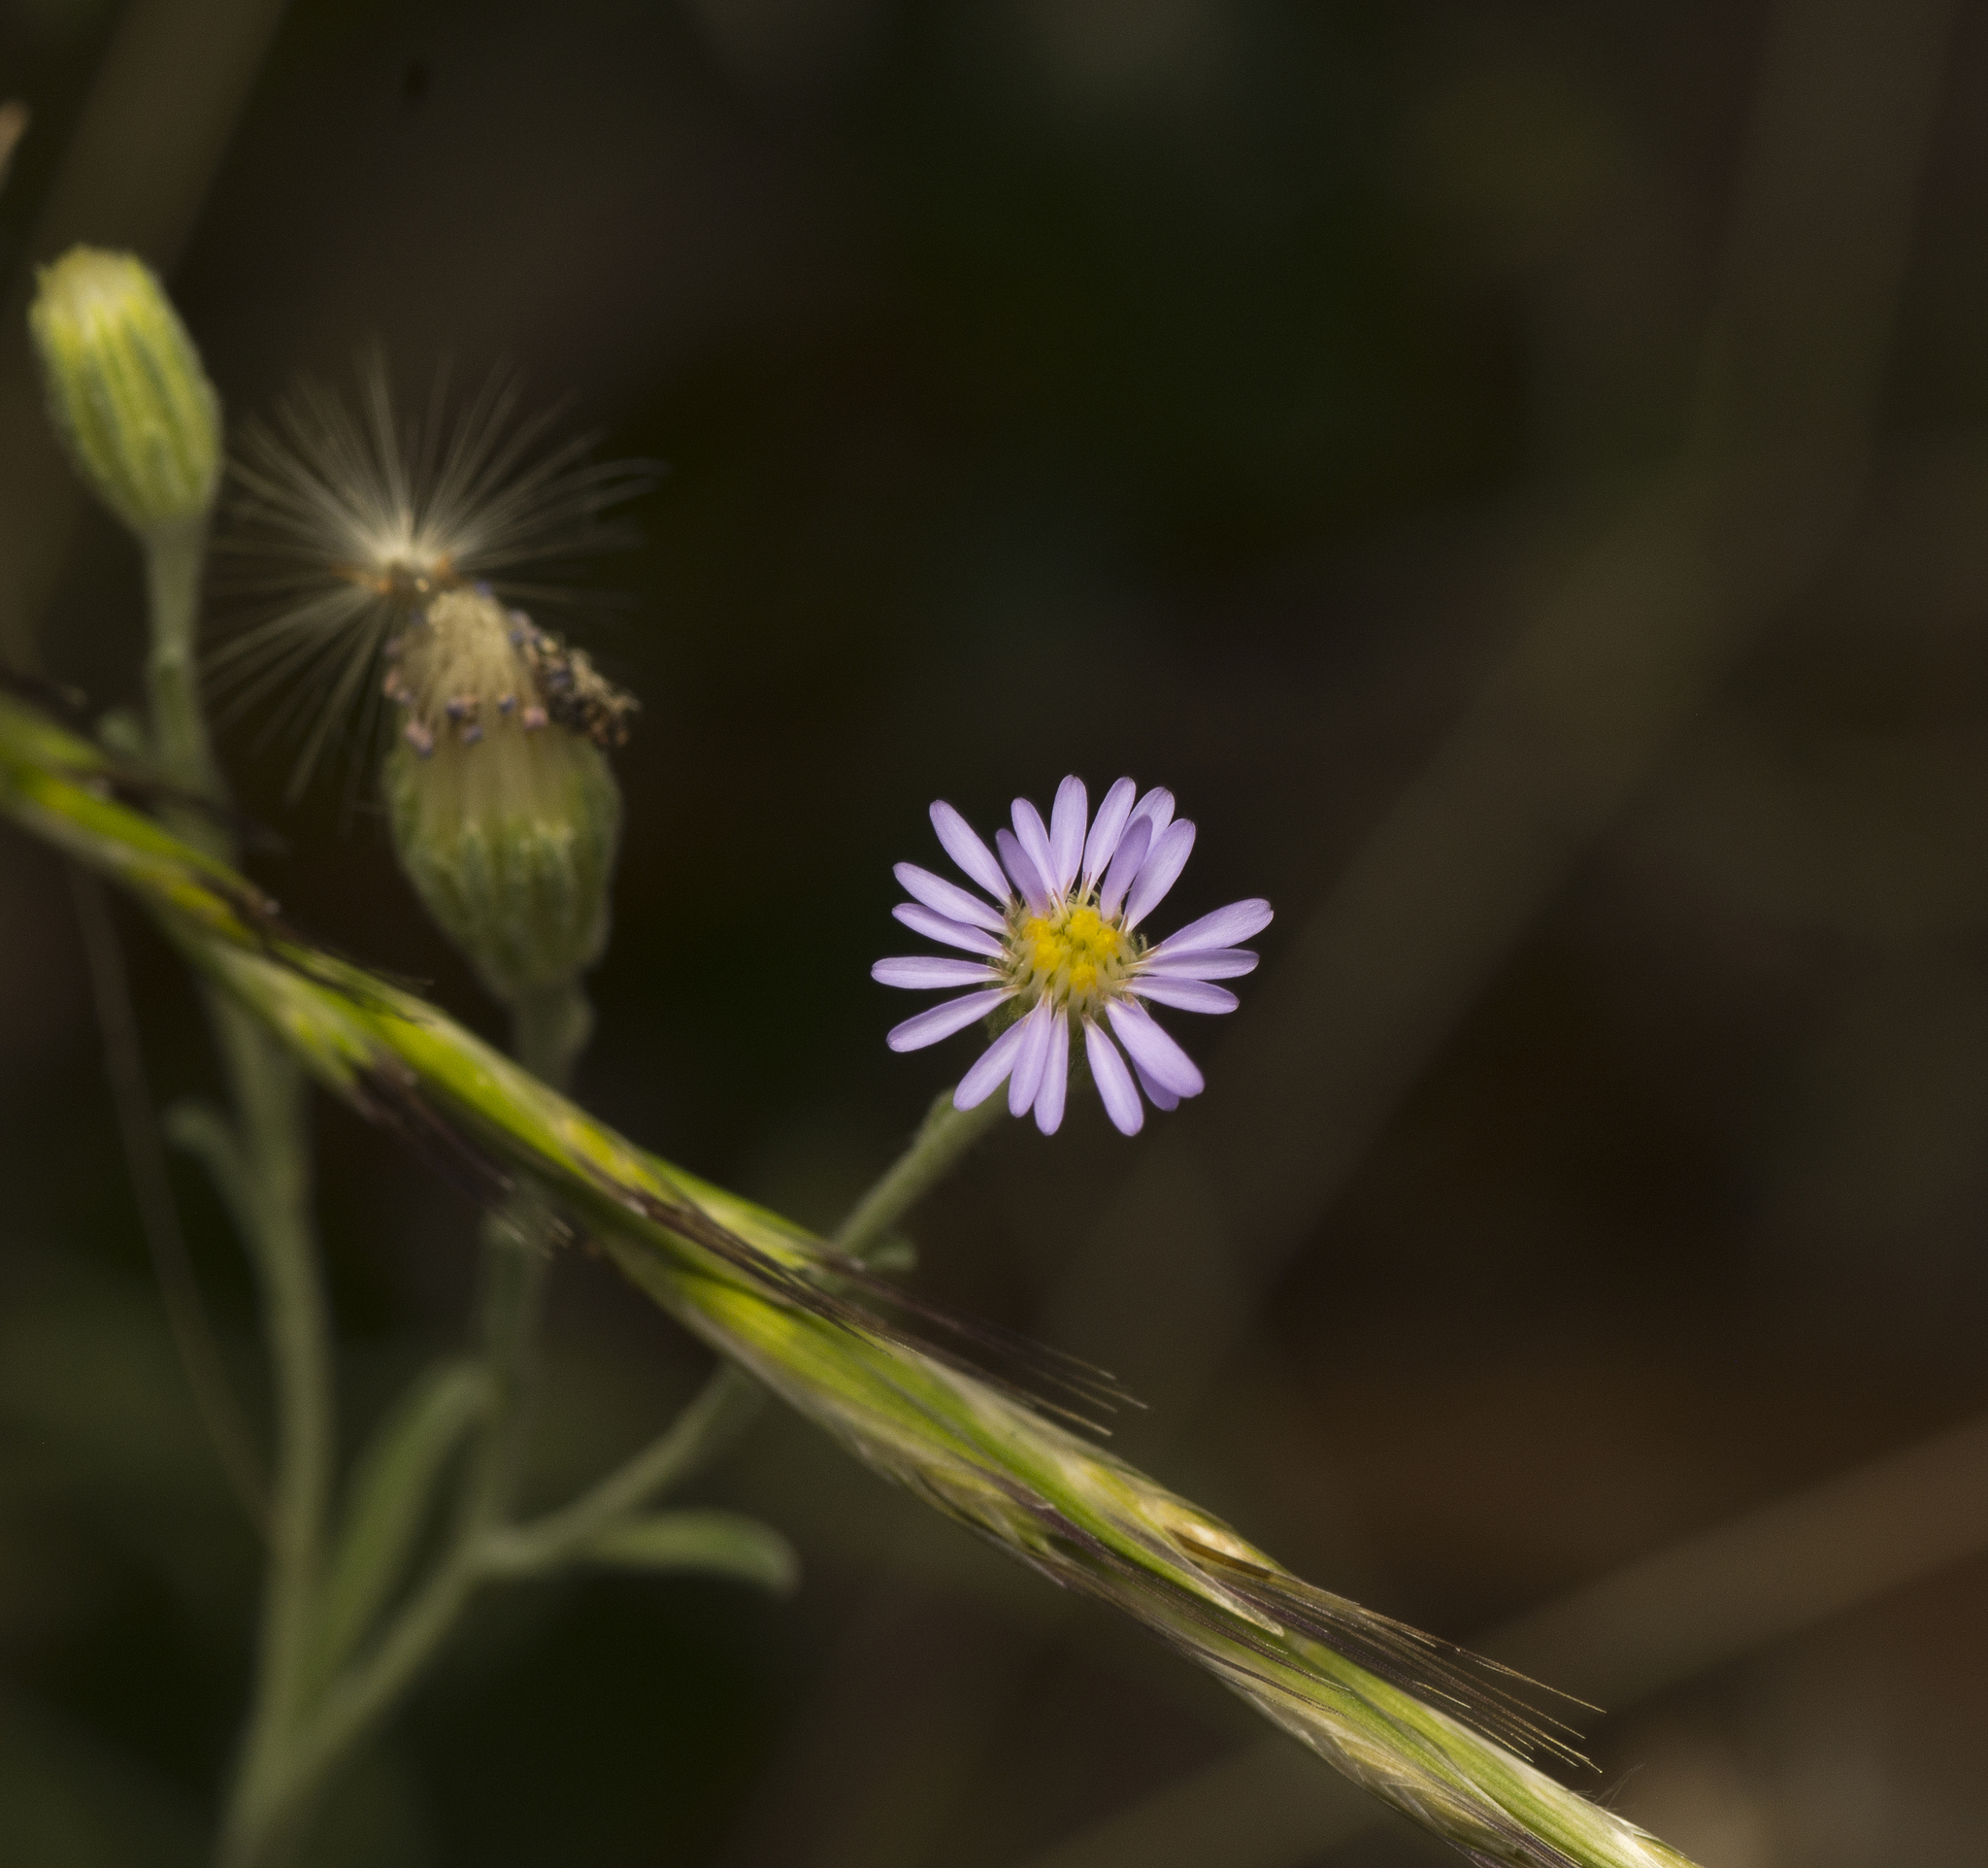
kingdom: Plantae
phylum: Tracheophyta
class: Magnoliopsida
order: Asterales
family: Asteraceae
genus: Vittadinia
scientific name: Vittadinia gracilis
